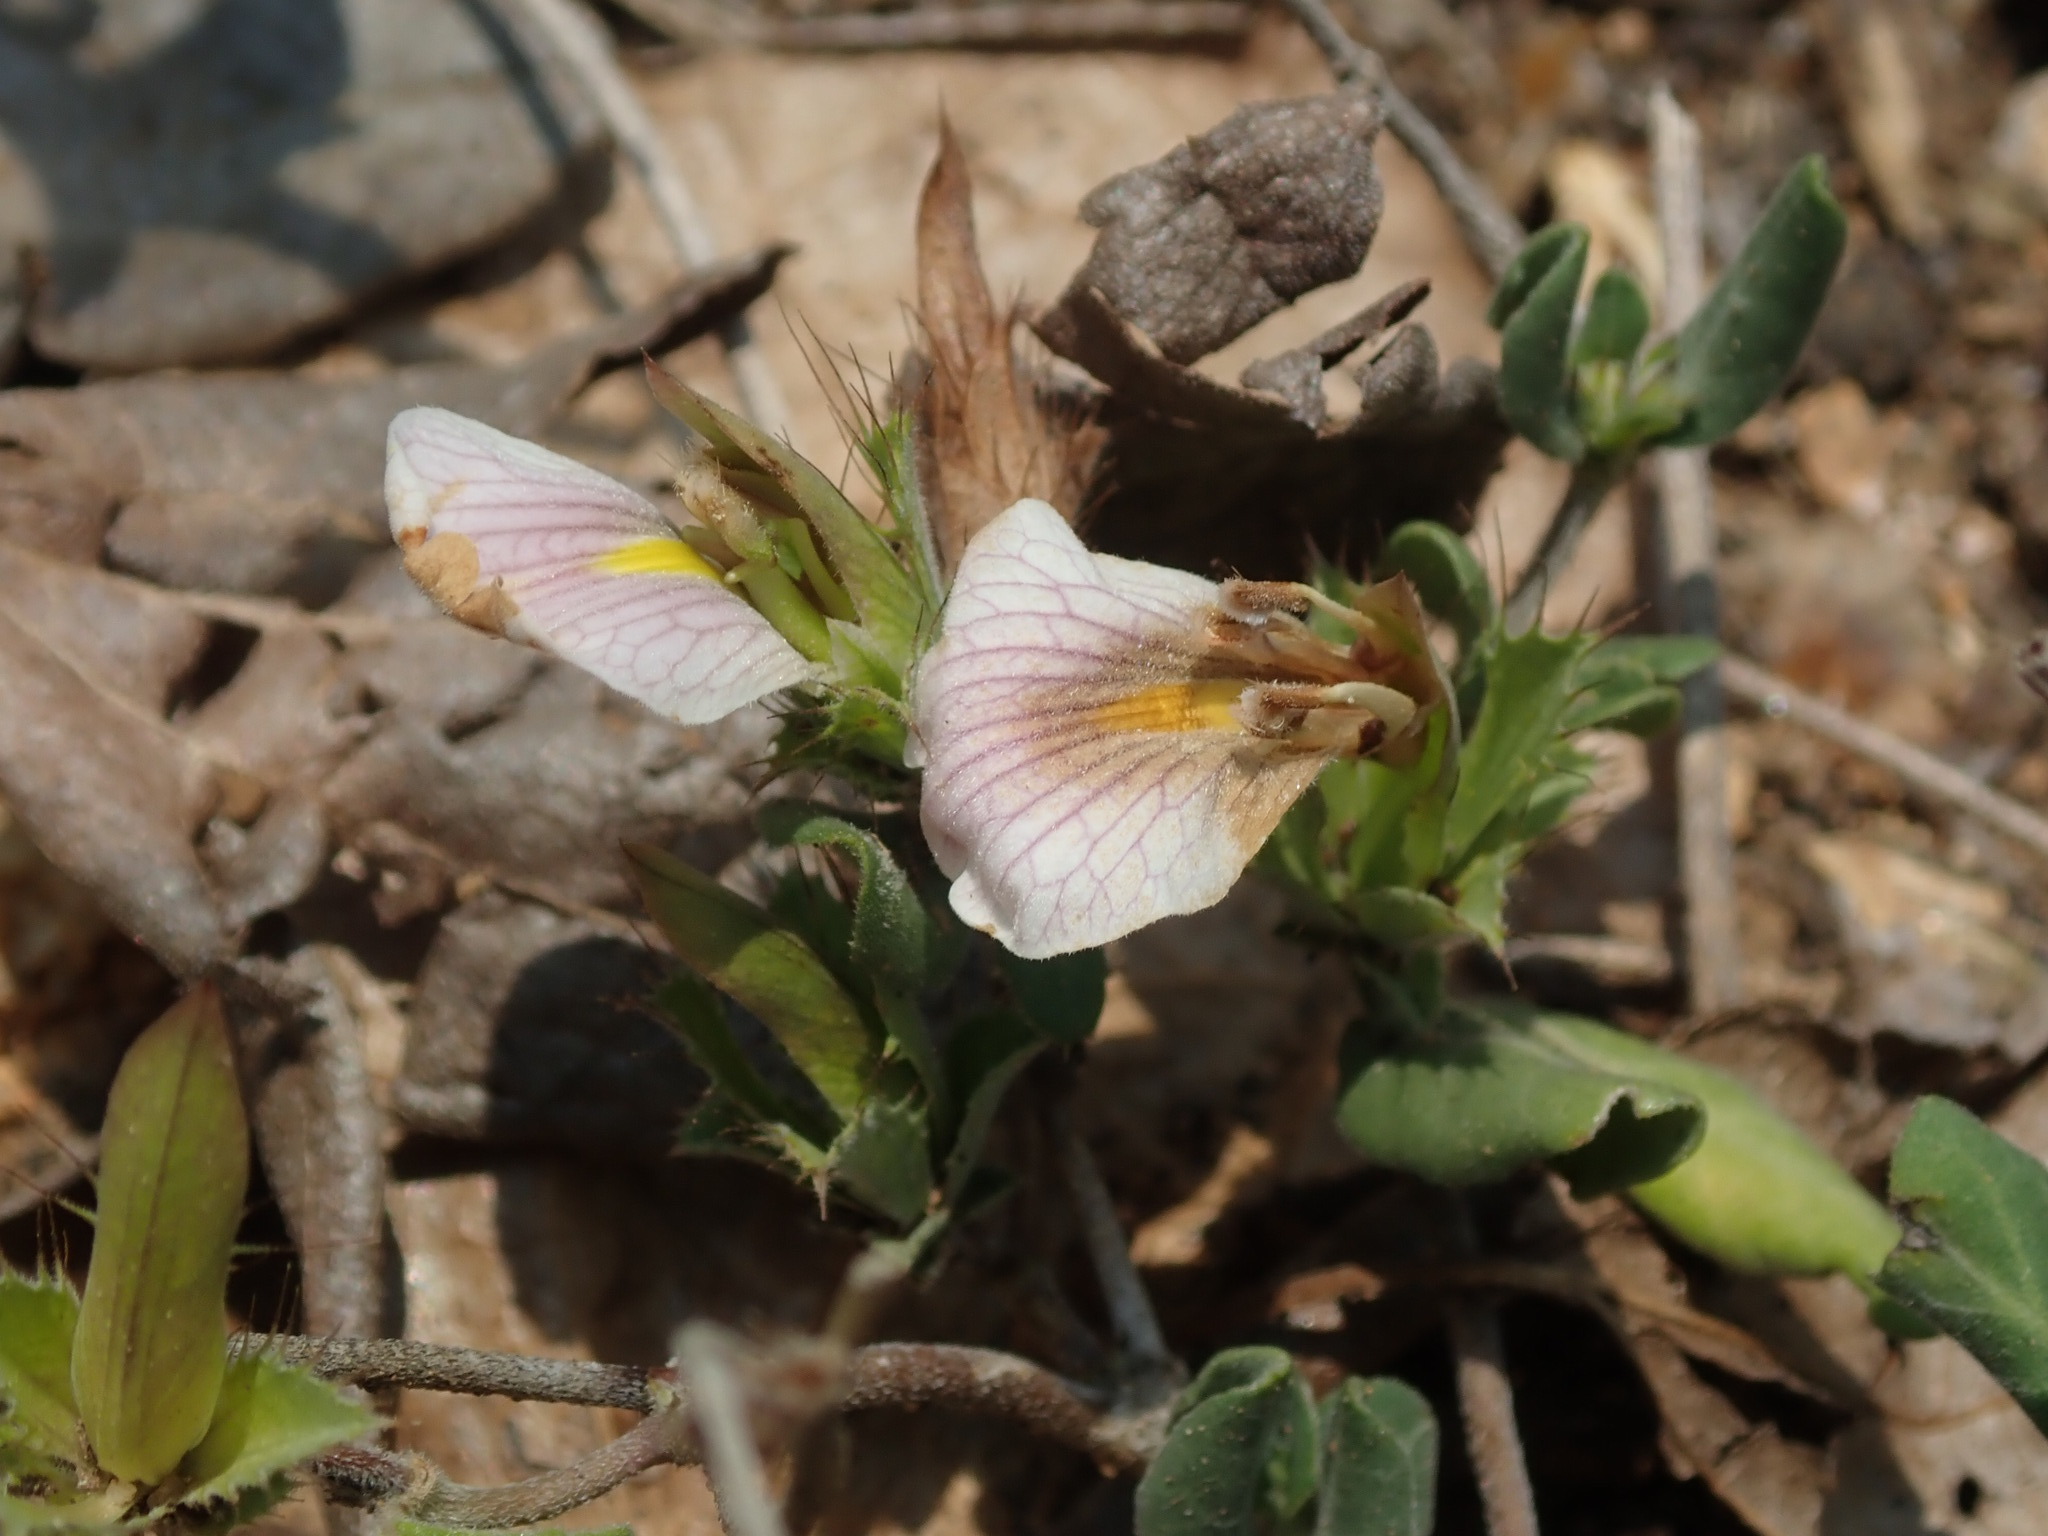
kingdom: Plantae
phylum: Tracheophyta
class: Magnoliopsida
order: Lamiales
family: Acanthaceae
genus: Blepharis
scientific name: Blepharis maderaspatensis
